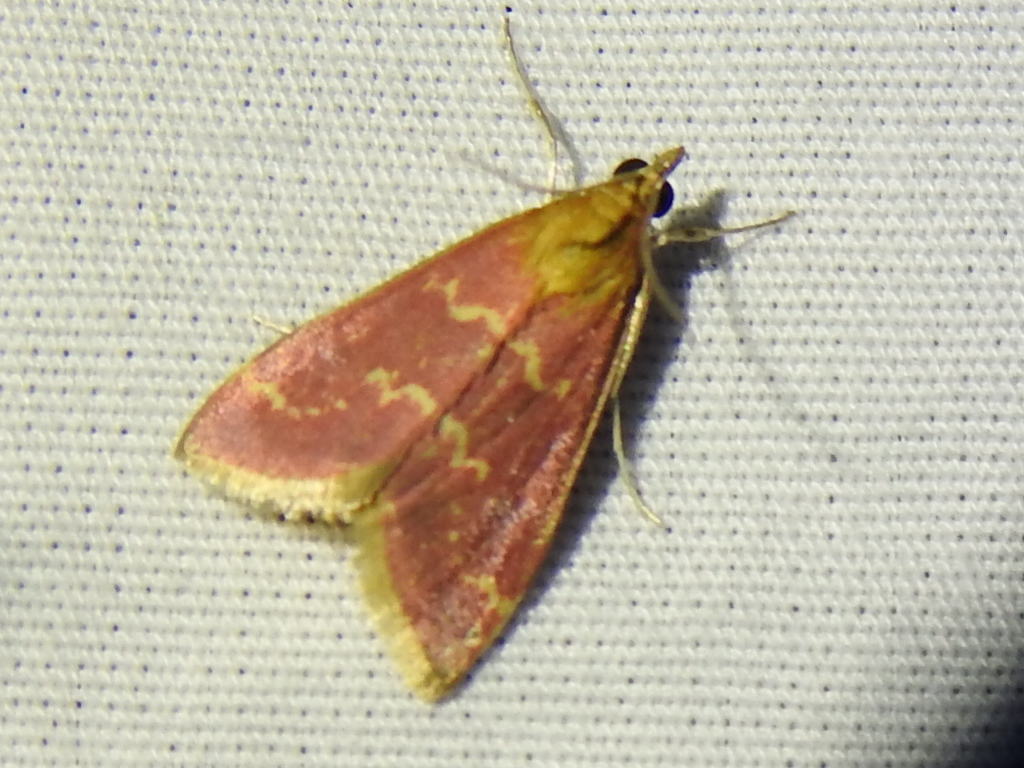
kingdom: Animalia
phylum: Arthropoda
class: Insecta
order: Lepidoptera
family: Crambidae
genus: Pyrausta
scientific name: Pyrausta signatalis
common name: Raspberry pyrausta moth
